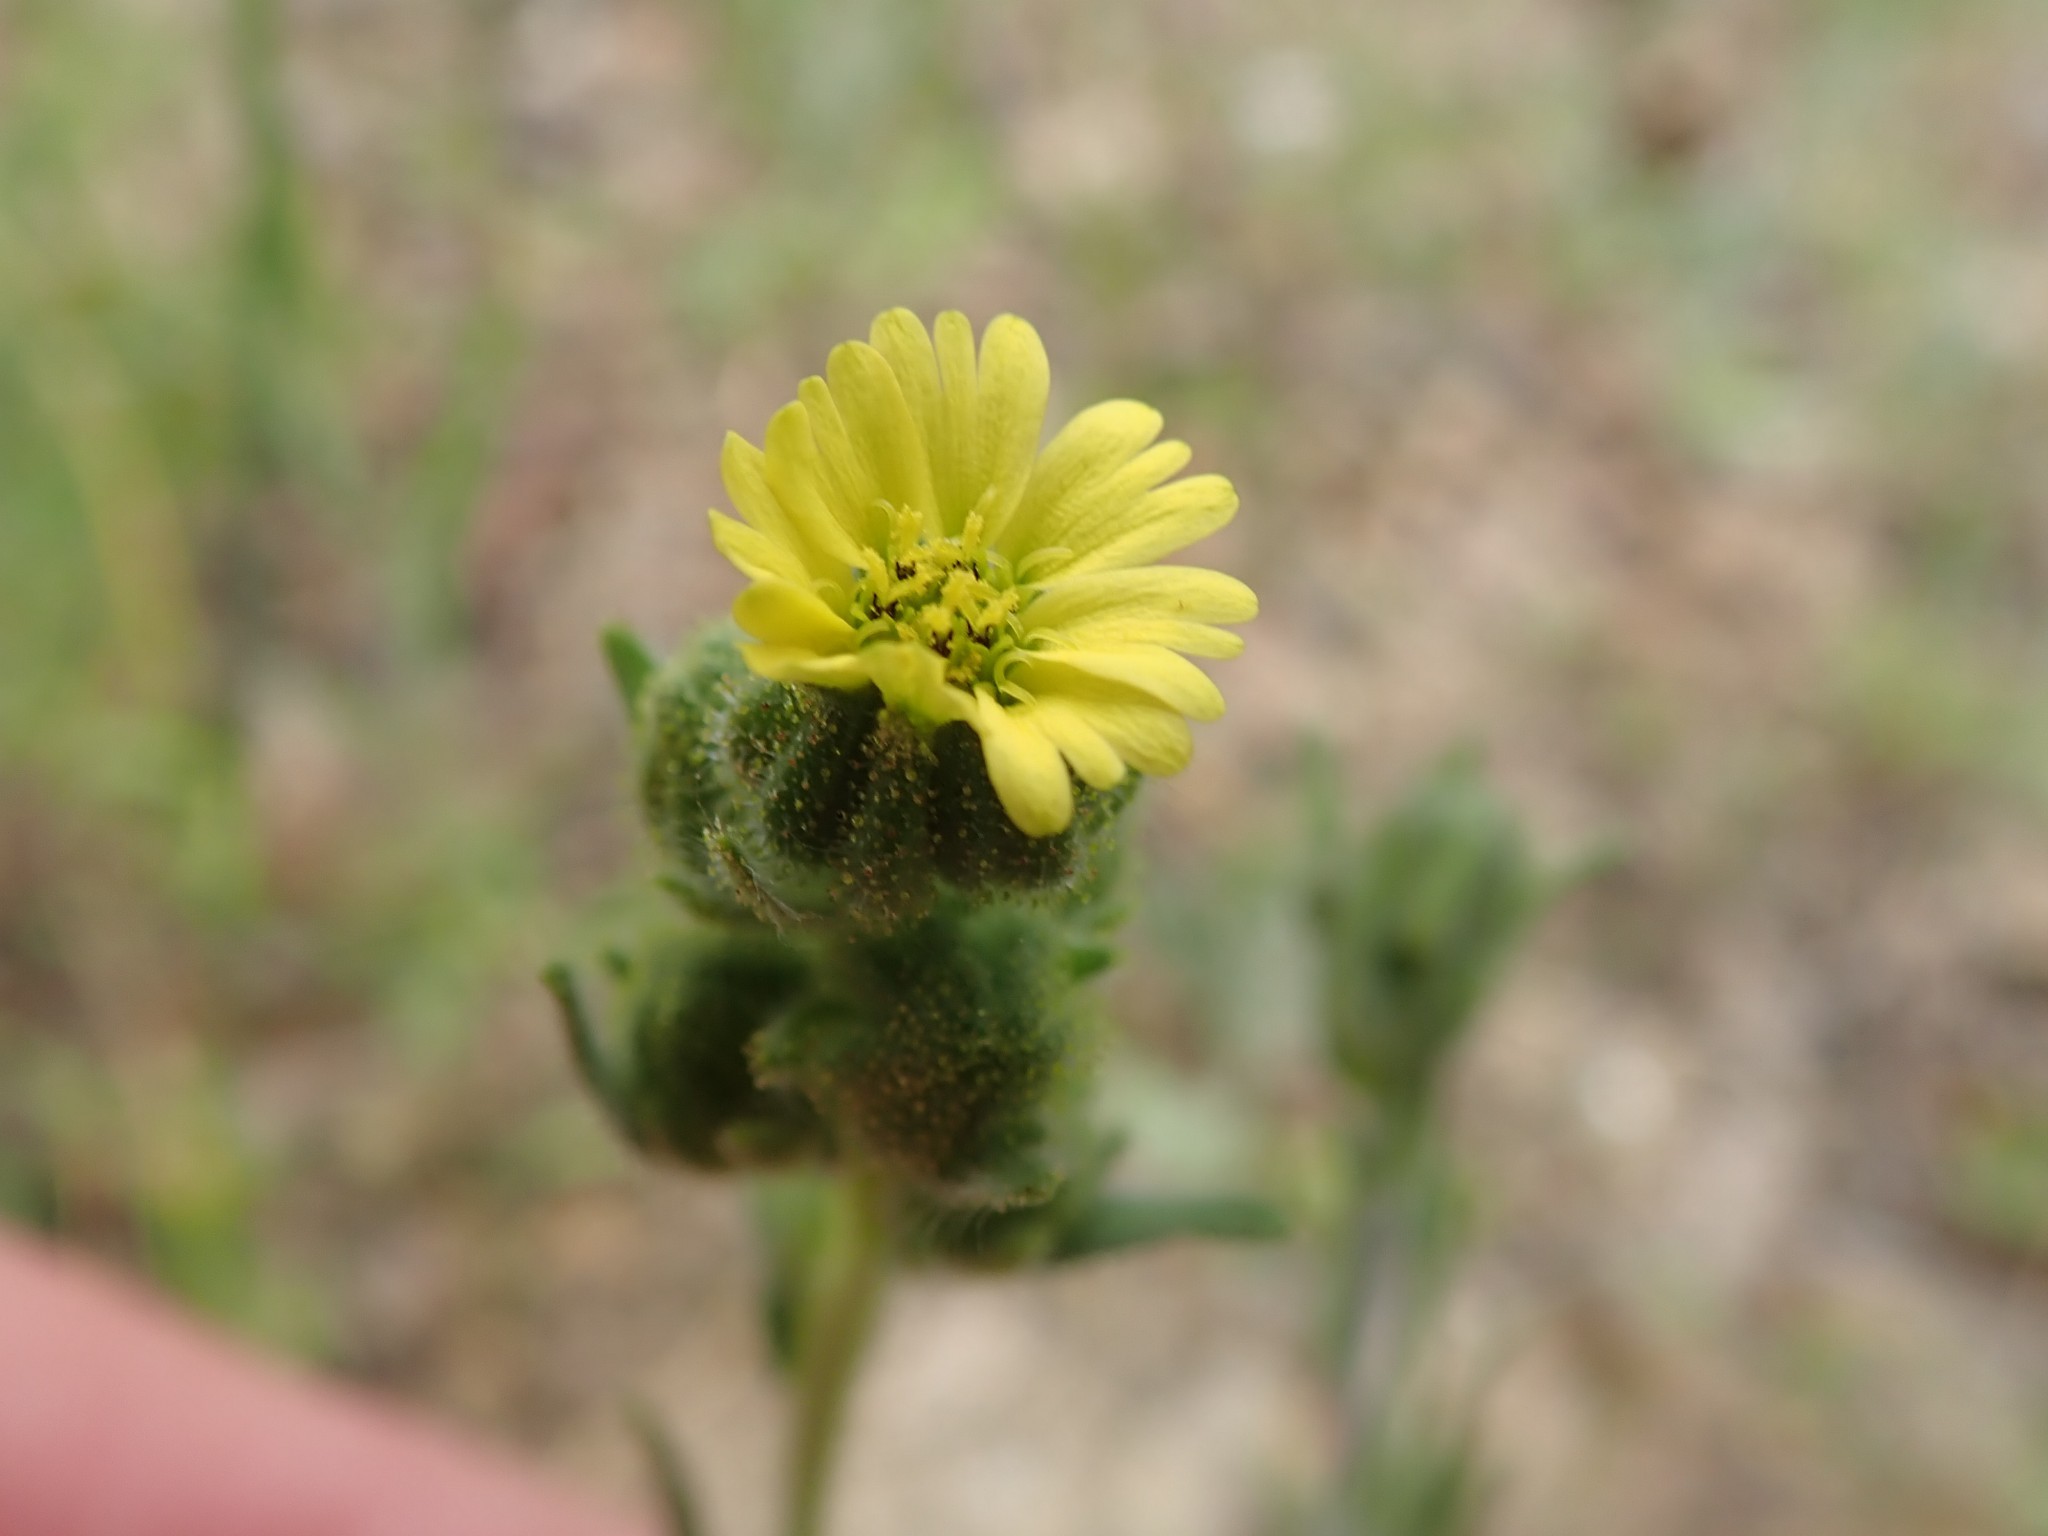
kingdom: Plantae
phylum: Tracheophyta
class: Magnoliopsida
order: Asterales
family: Asteraceae
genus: Madia
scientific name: Madia gracilis
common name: Grassy tarweed
